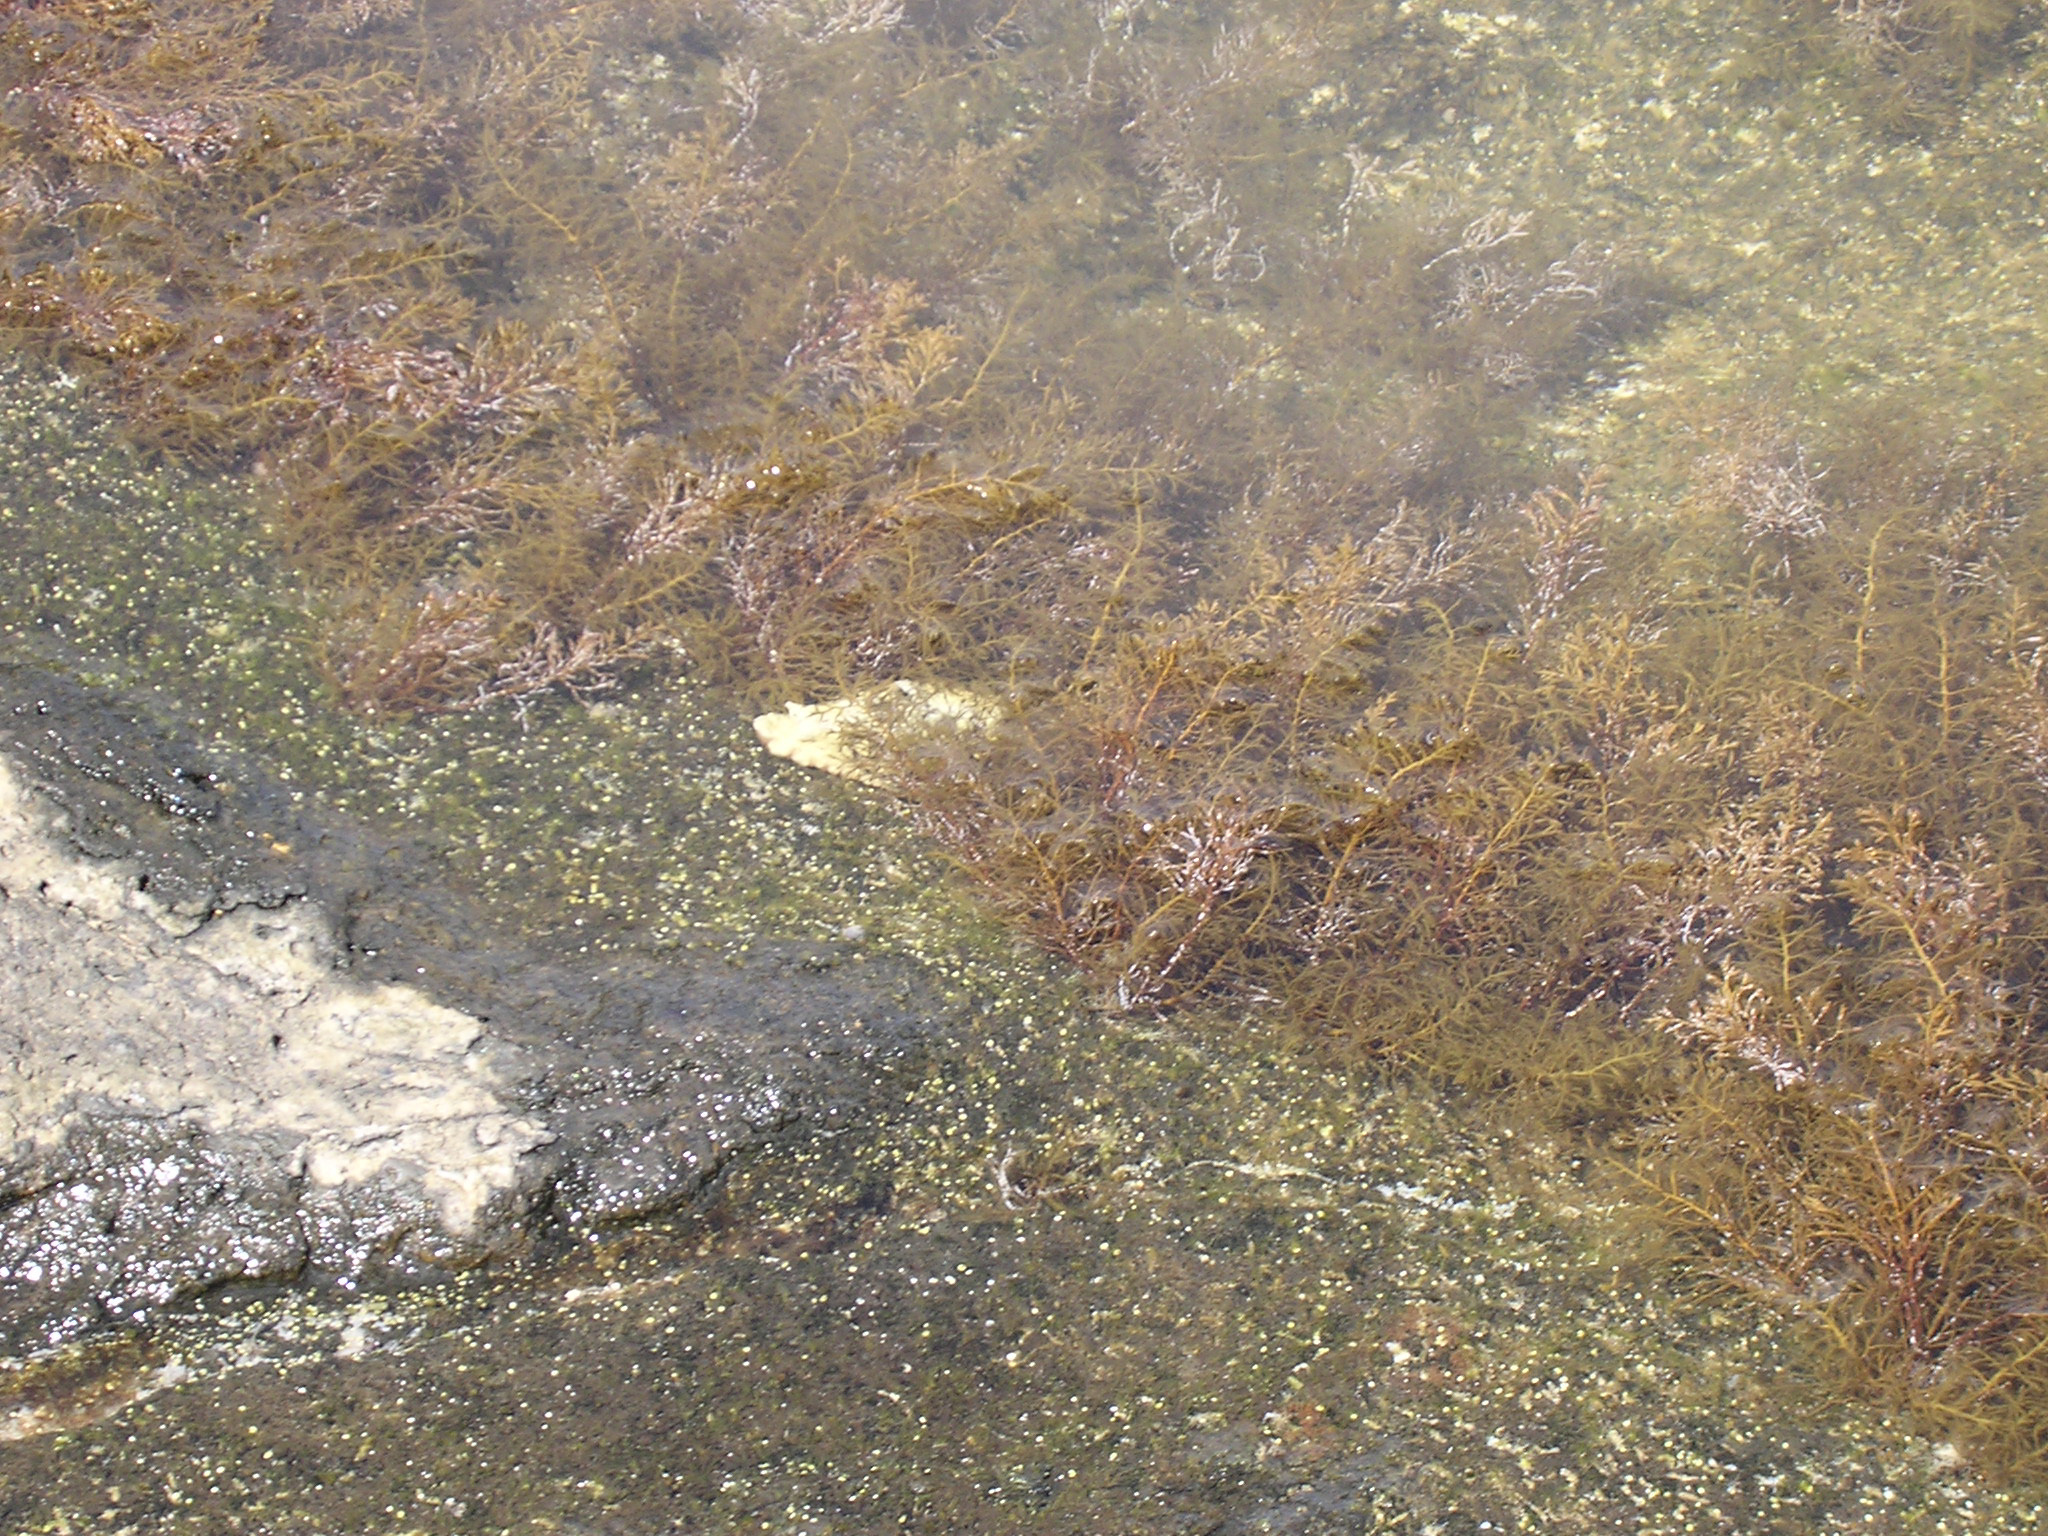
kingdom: Animalia
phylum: Mollusca
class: Gastropoda
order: Aplysiida
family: Aplysiidae
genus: Aplysia
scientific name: Aplysia dactylomela
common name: Large-spotted sea hare
